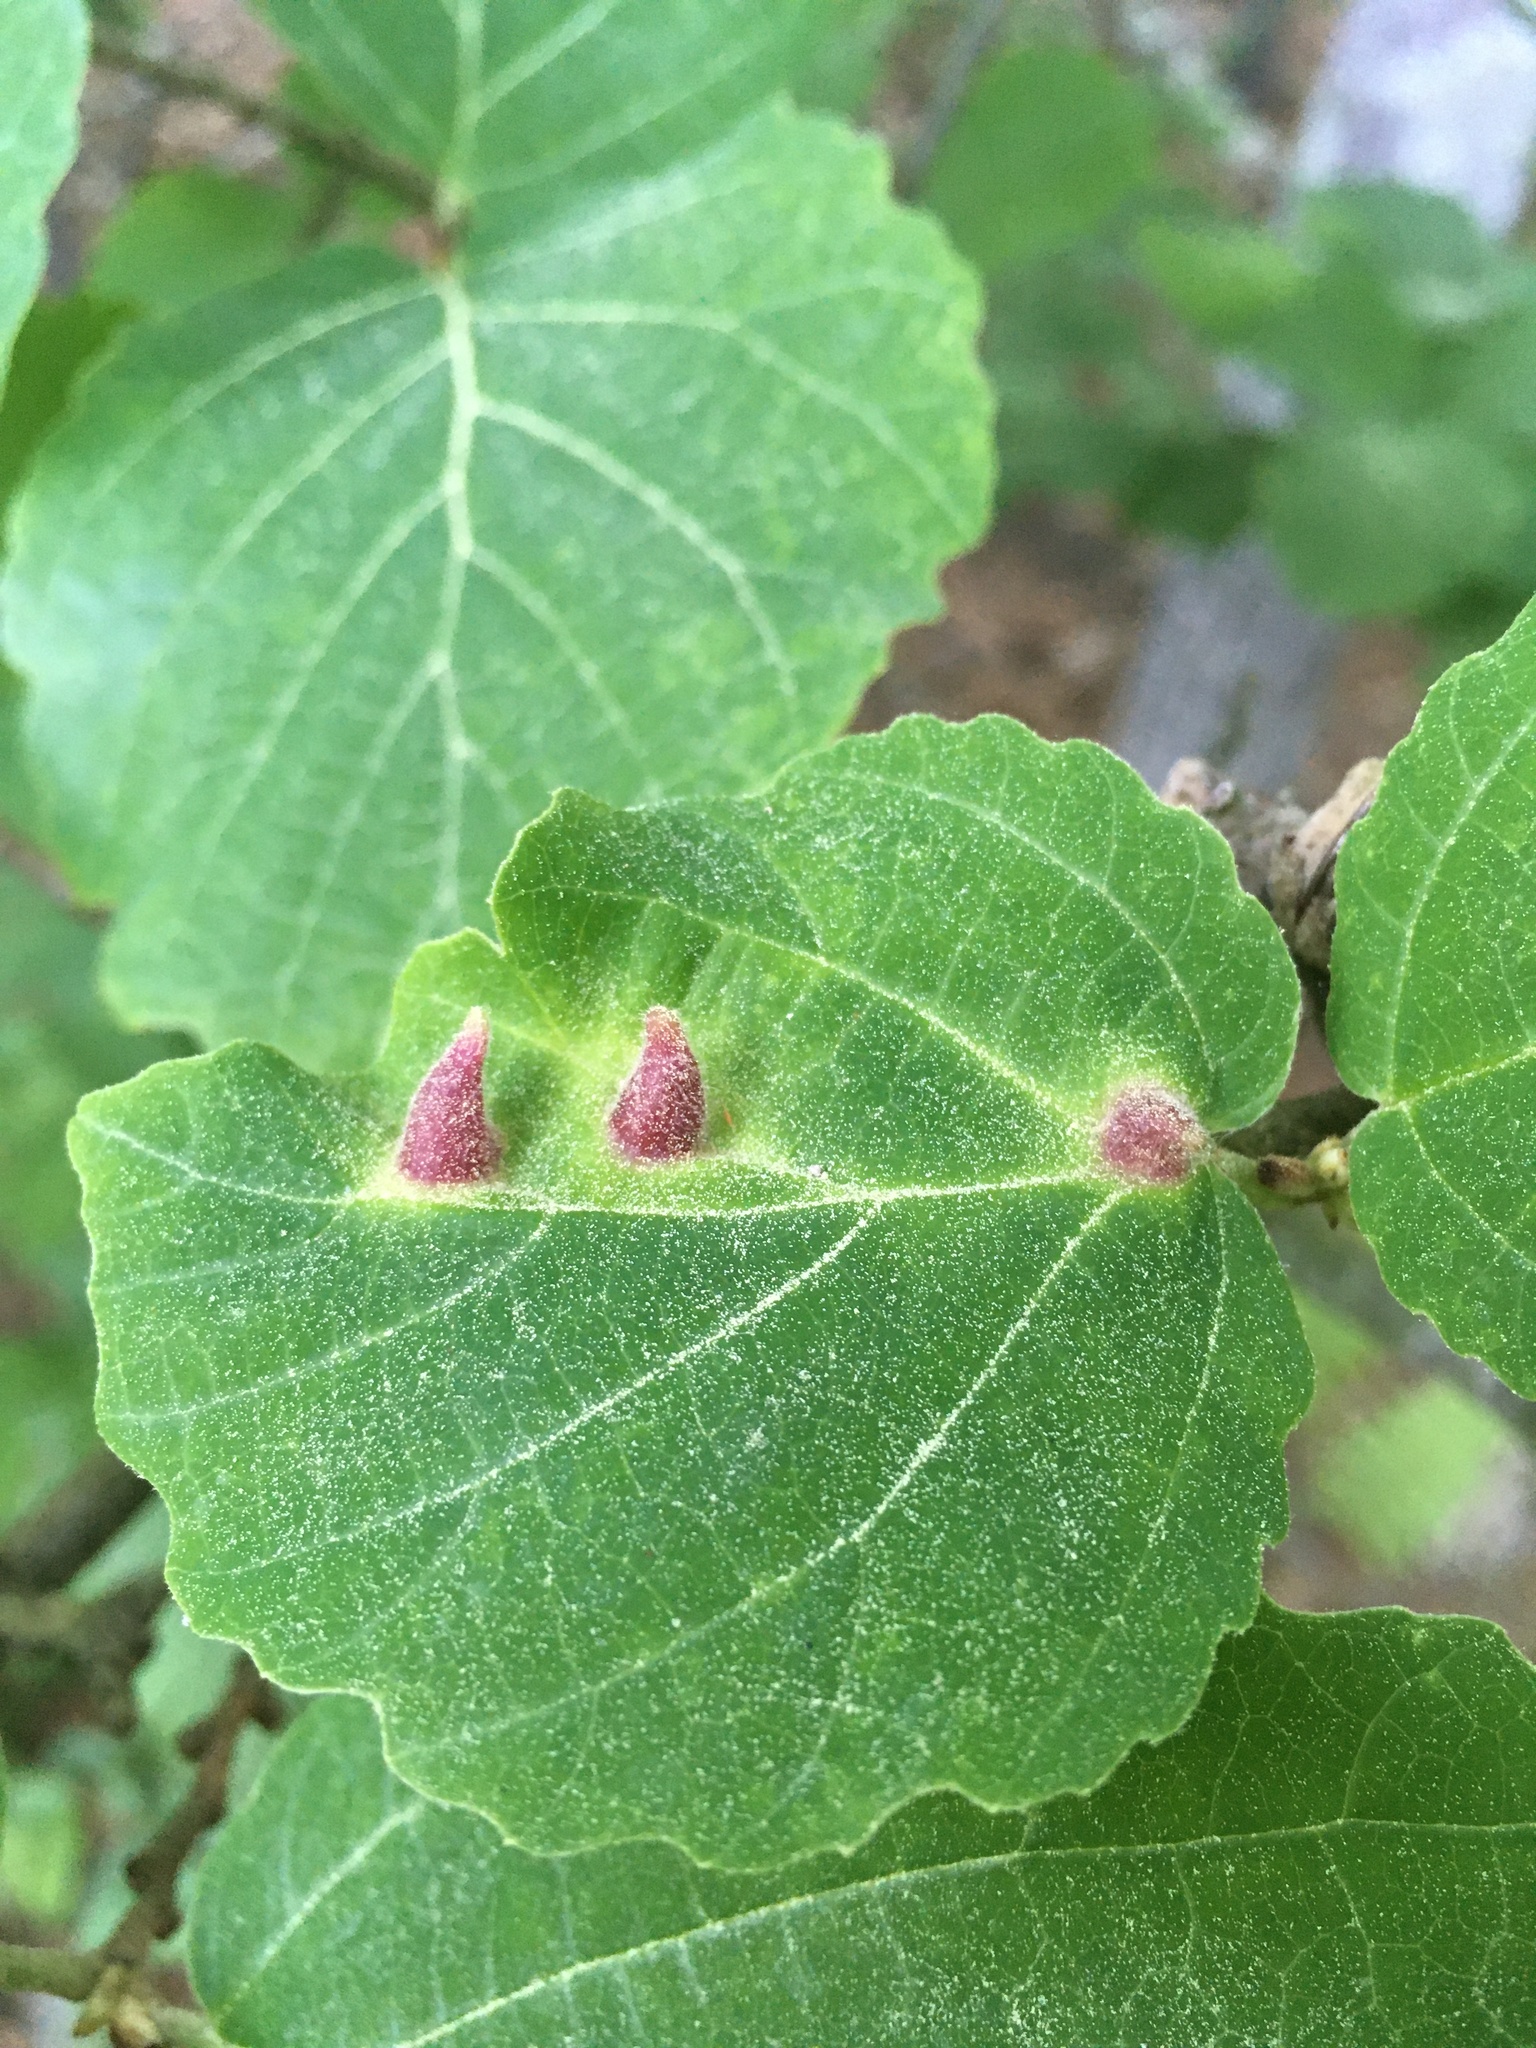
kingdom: Animalia
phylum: Arthropoda
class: Insecta
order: Hemiptera
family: Aphididae
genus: Hormaphis
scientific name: Hormaphis hamamelidis
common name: Witch-hazel cone gall aphid
